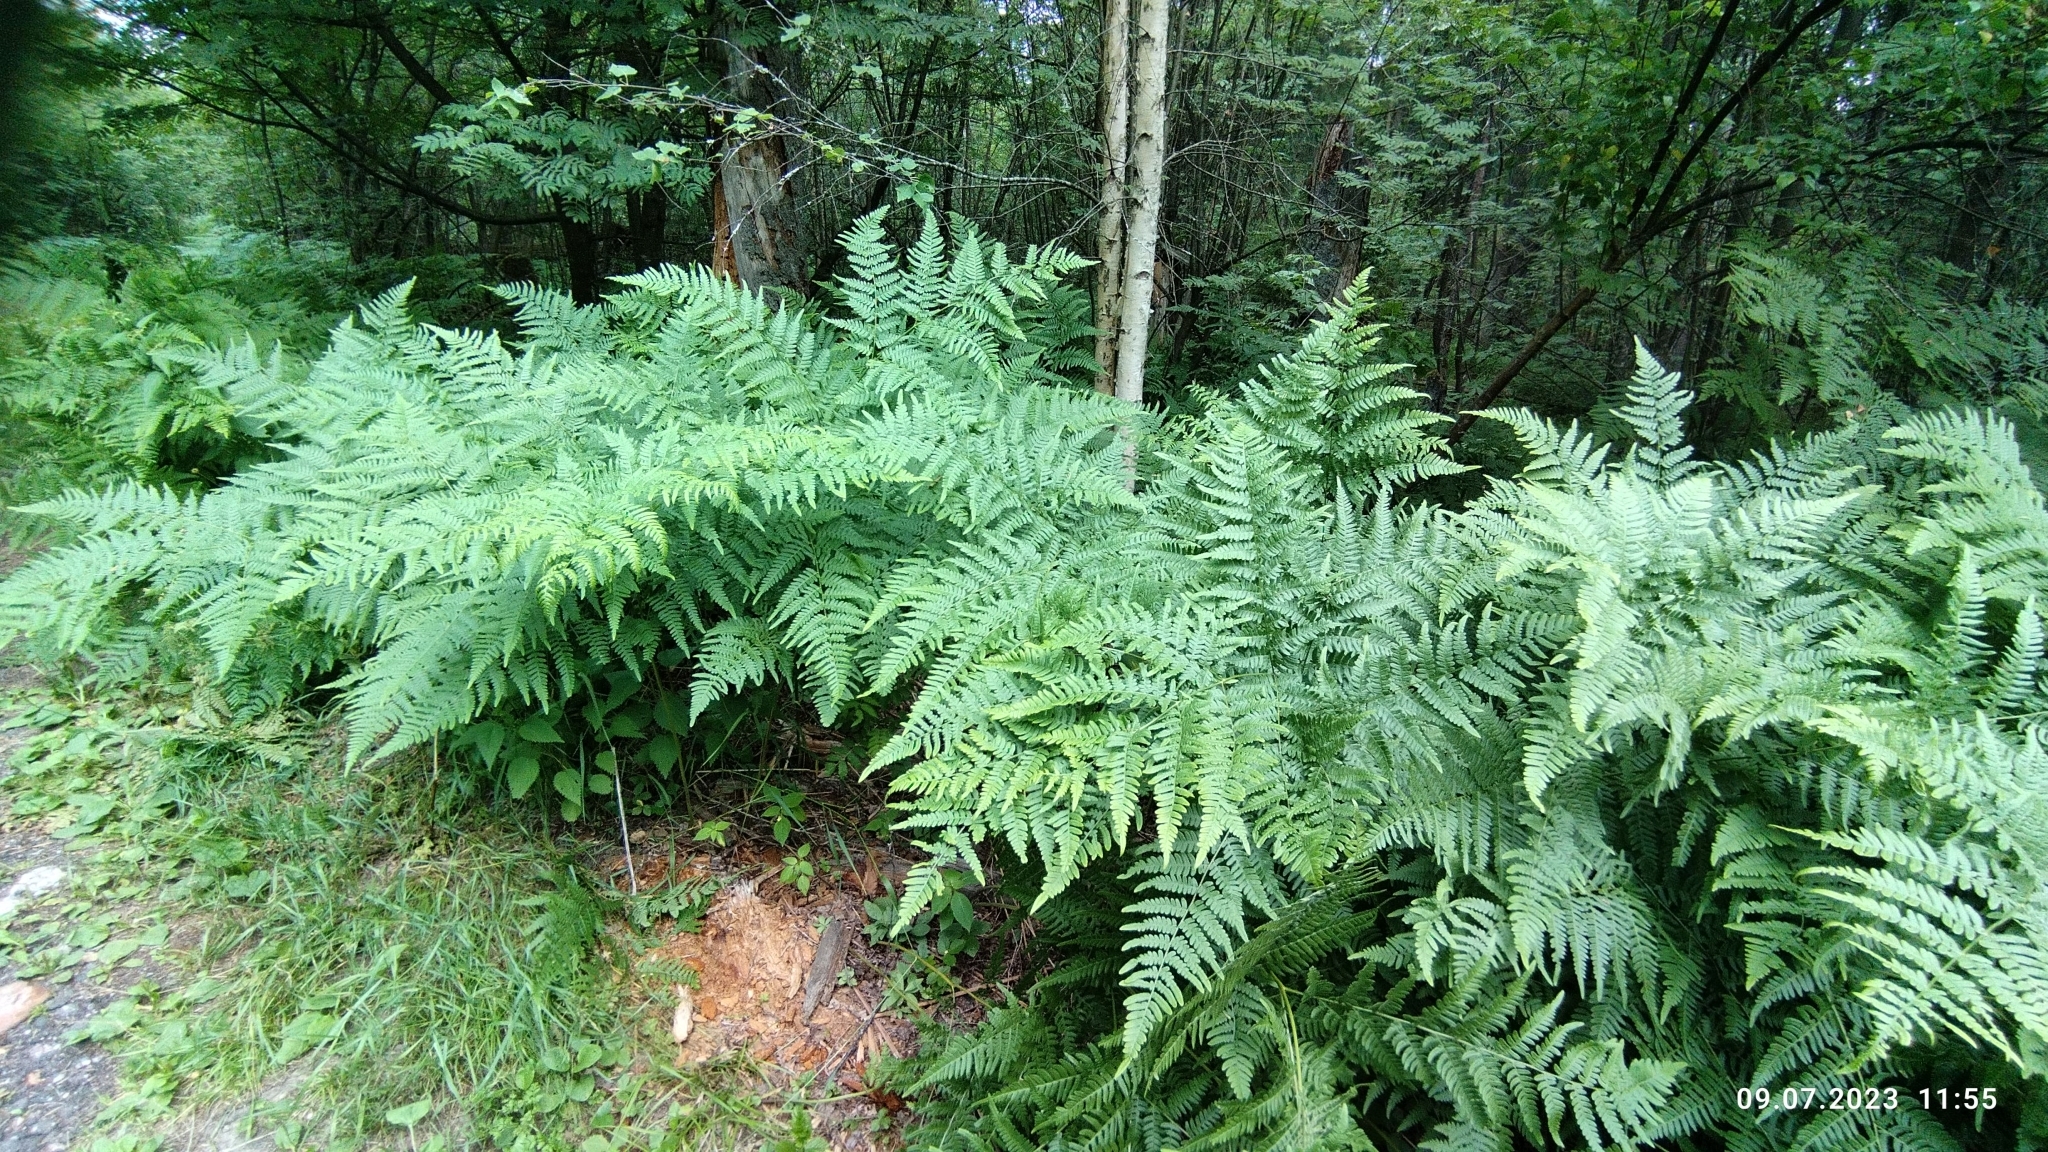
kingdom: Plantae
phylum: Tracheophyta
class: Polypodiopsida
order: Polypodiales
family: Dennstaedtiaceae
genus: Pteridium
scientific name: Pteridium aquilinum
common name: Bracken
